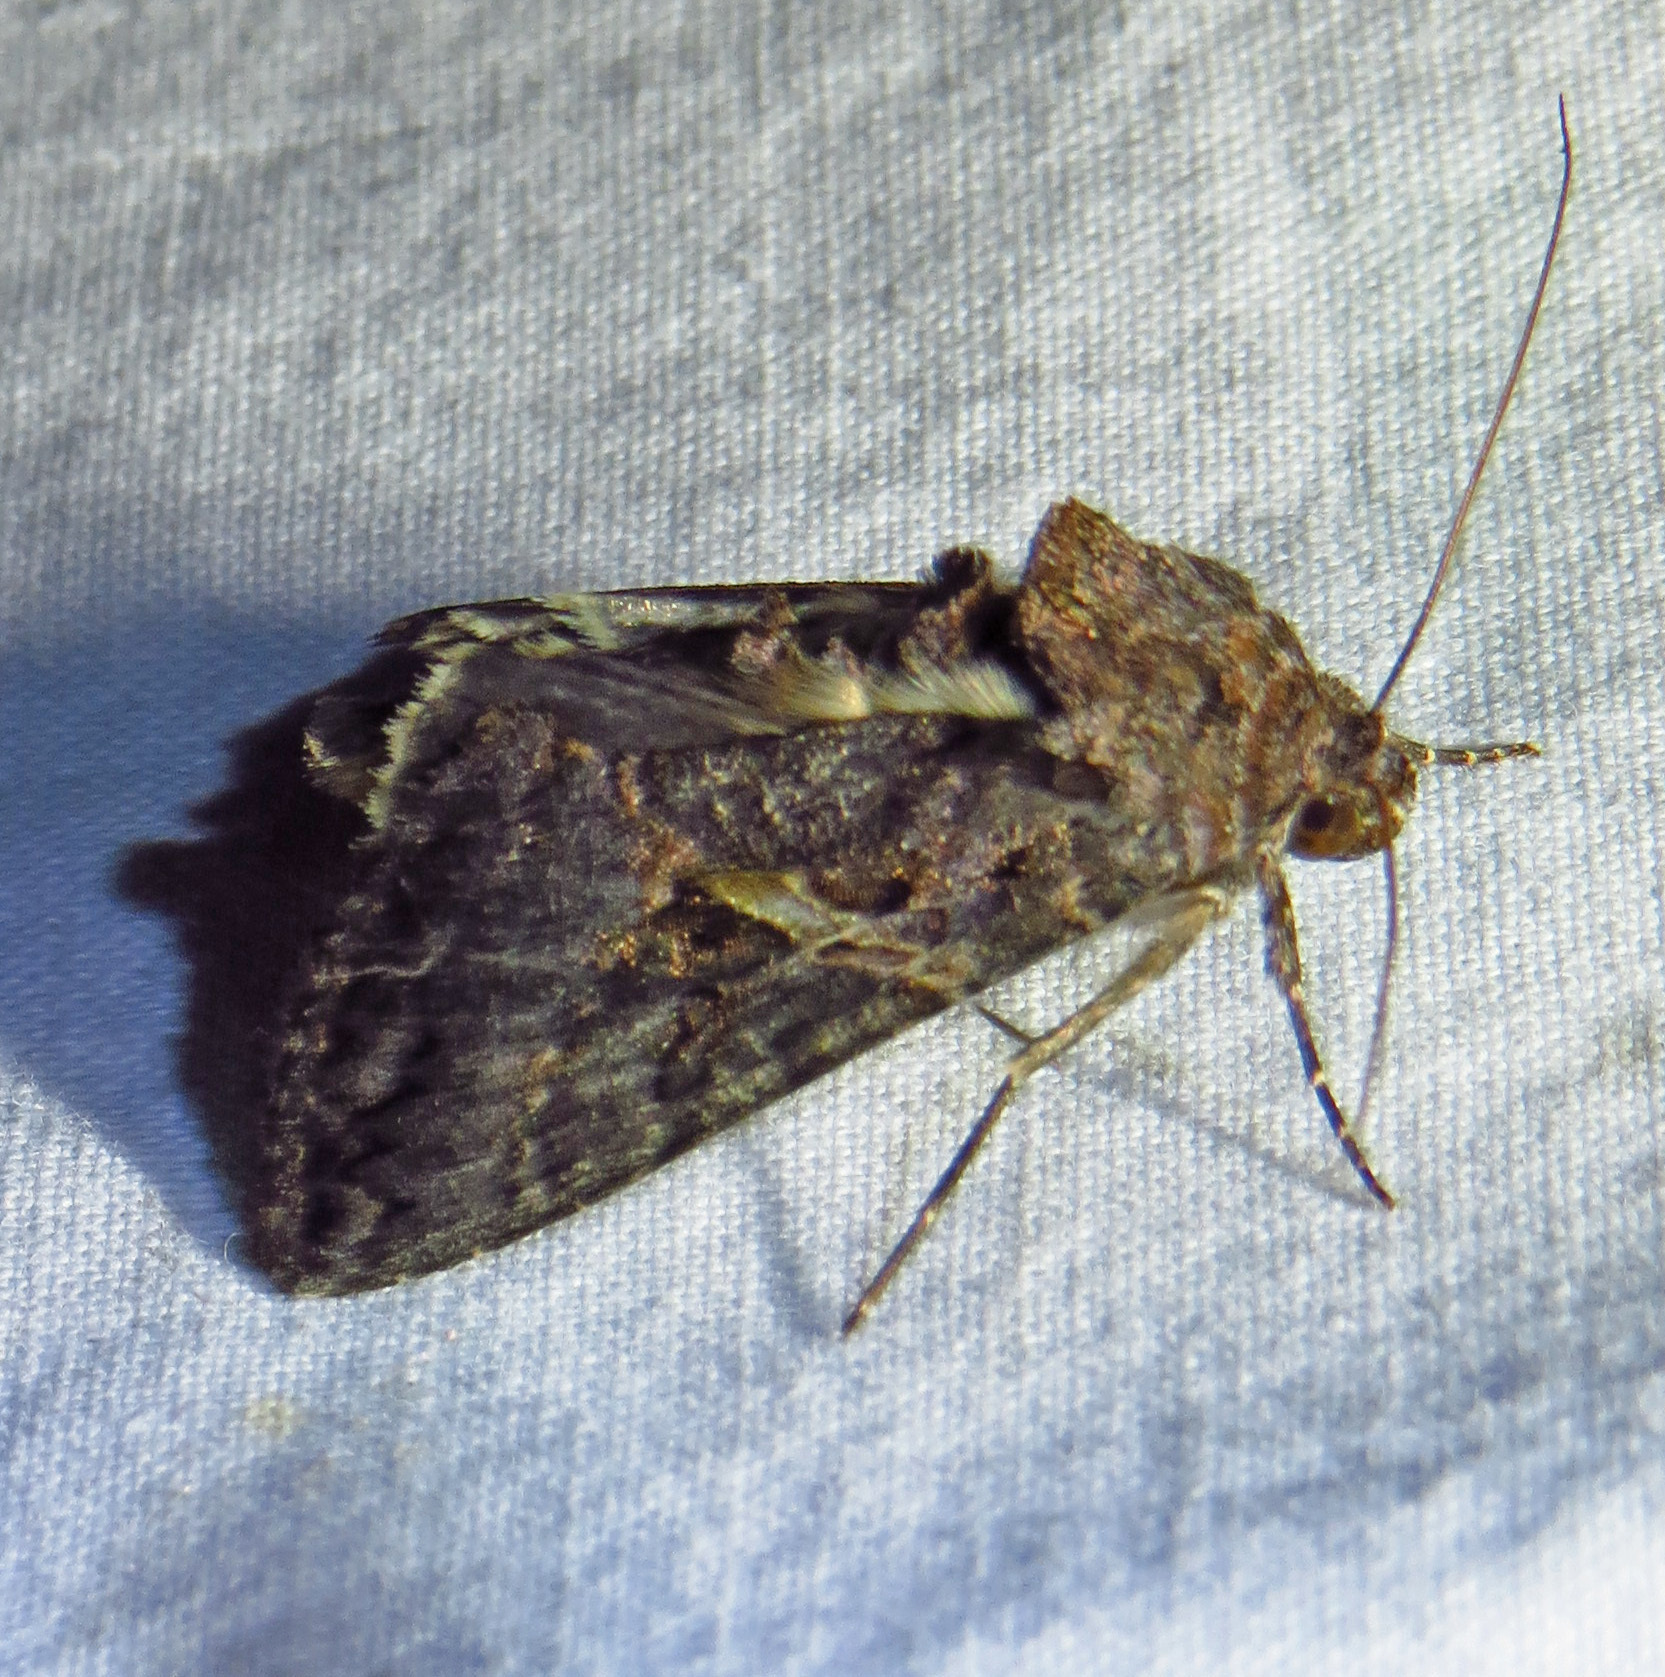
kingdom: Animalia
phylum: Arthropoda
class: Insecta
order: Lepidoptera
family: Noctuidae
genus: Ctenoplusia
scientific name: Ctenoplusia oxygramma
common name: Sharp-stigma looper moth
